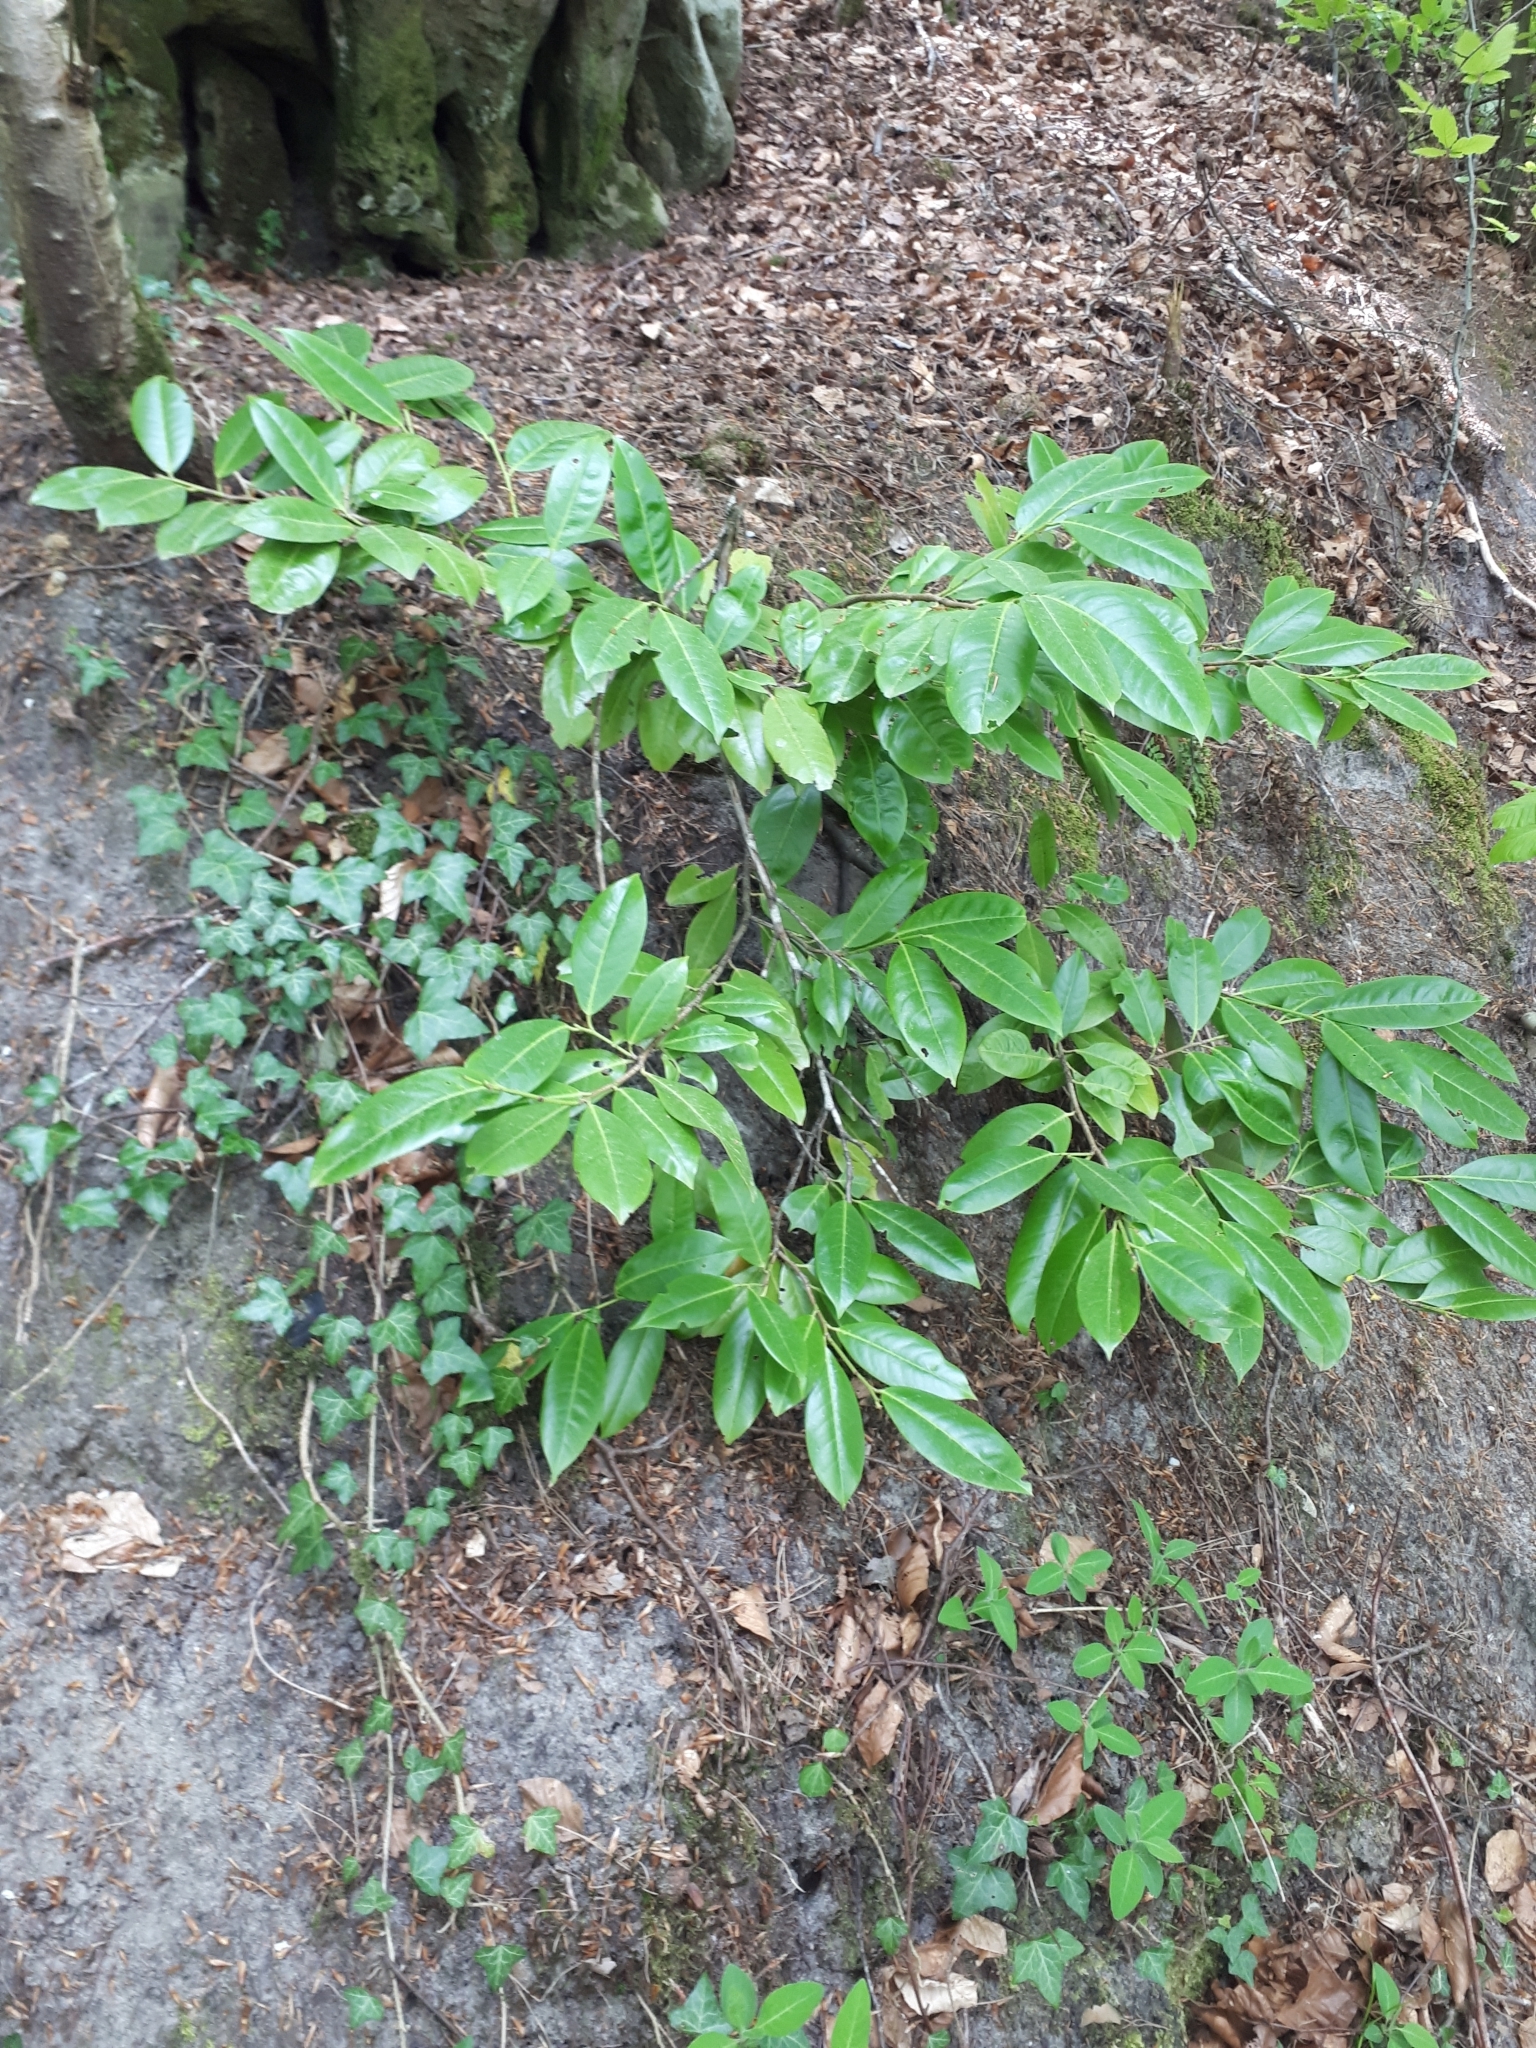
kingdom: Plantae
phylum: Tracheophyta
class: Magnoliopsida
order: Rosales
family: Rosaceae
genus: Prunus
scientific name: Prunus laurocerasus
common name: Cherry laurel
